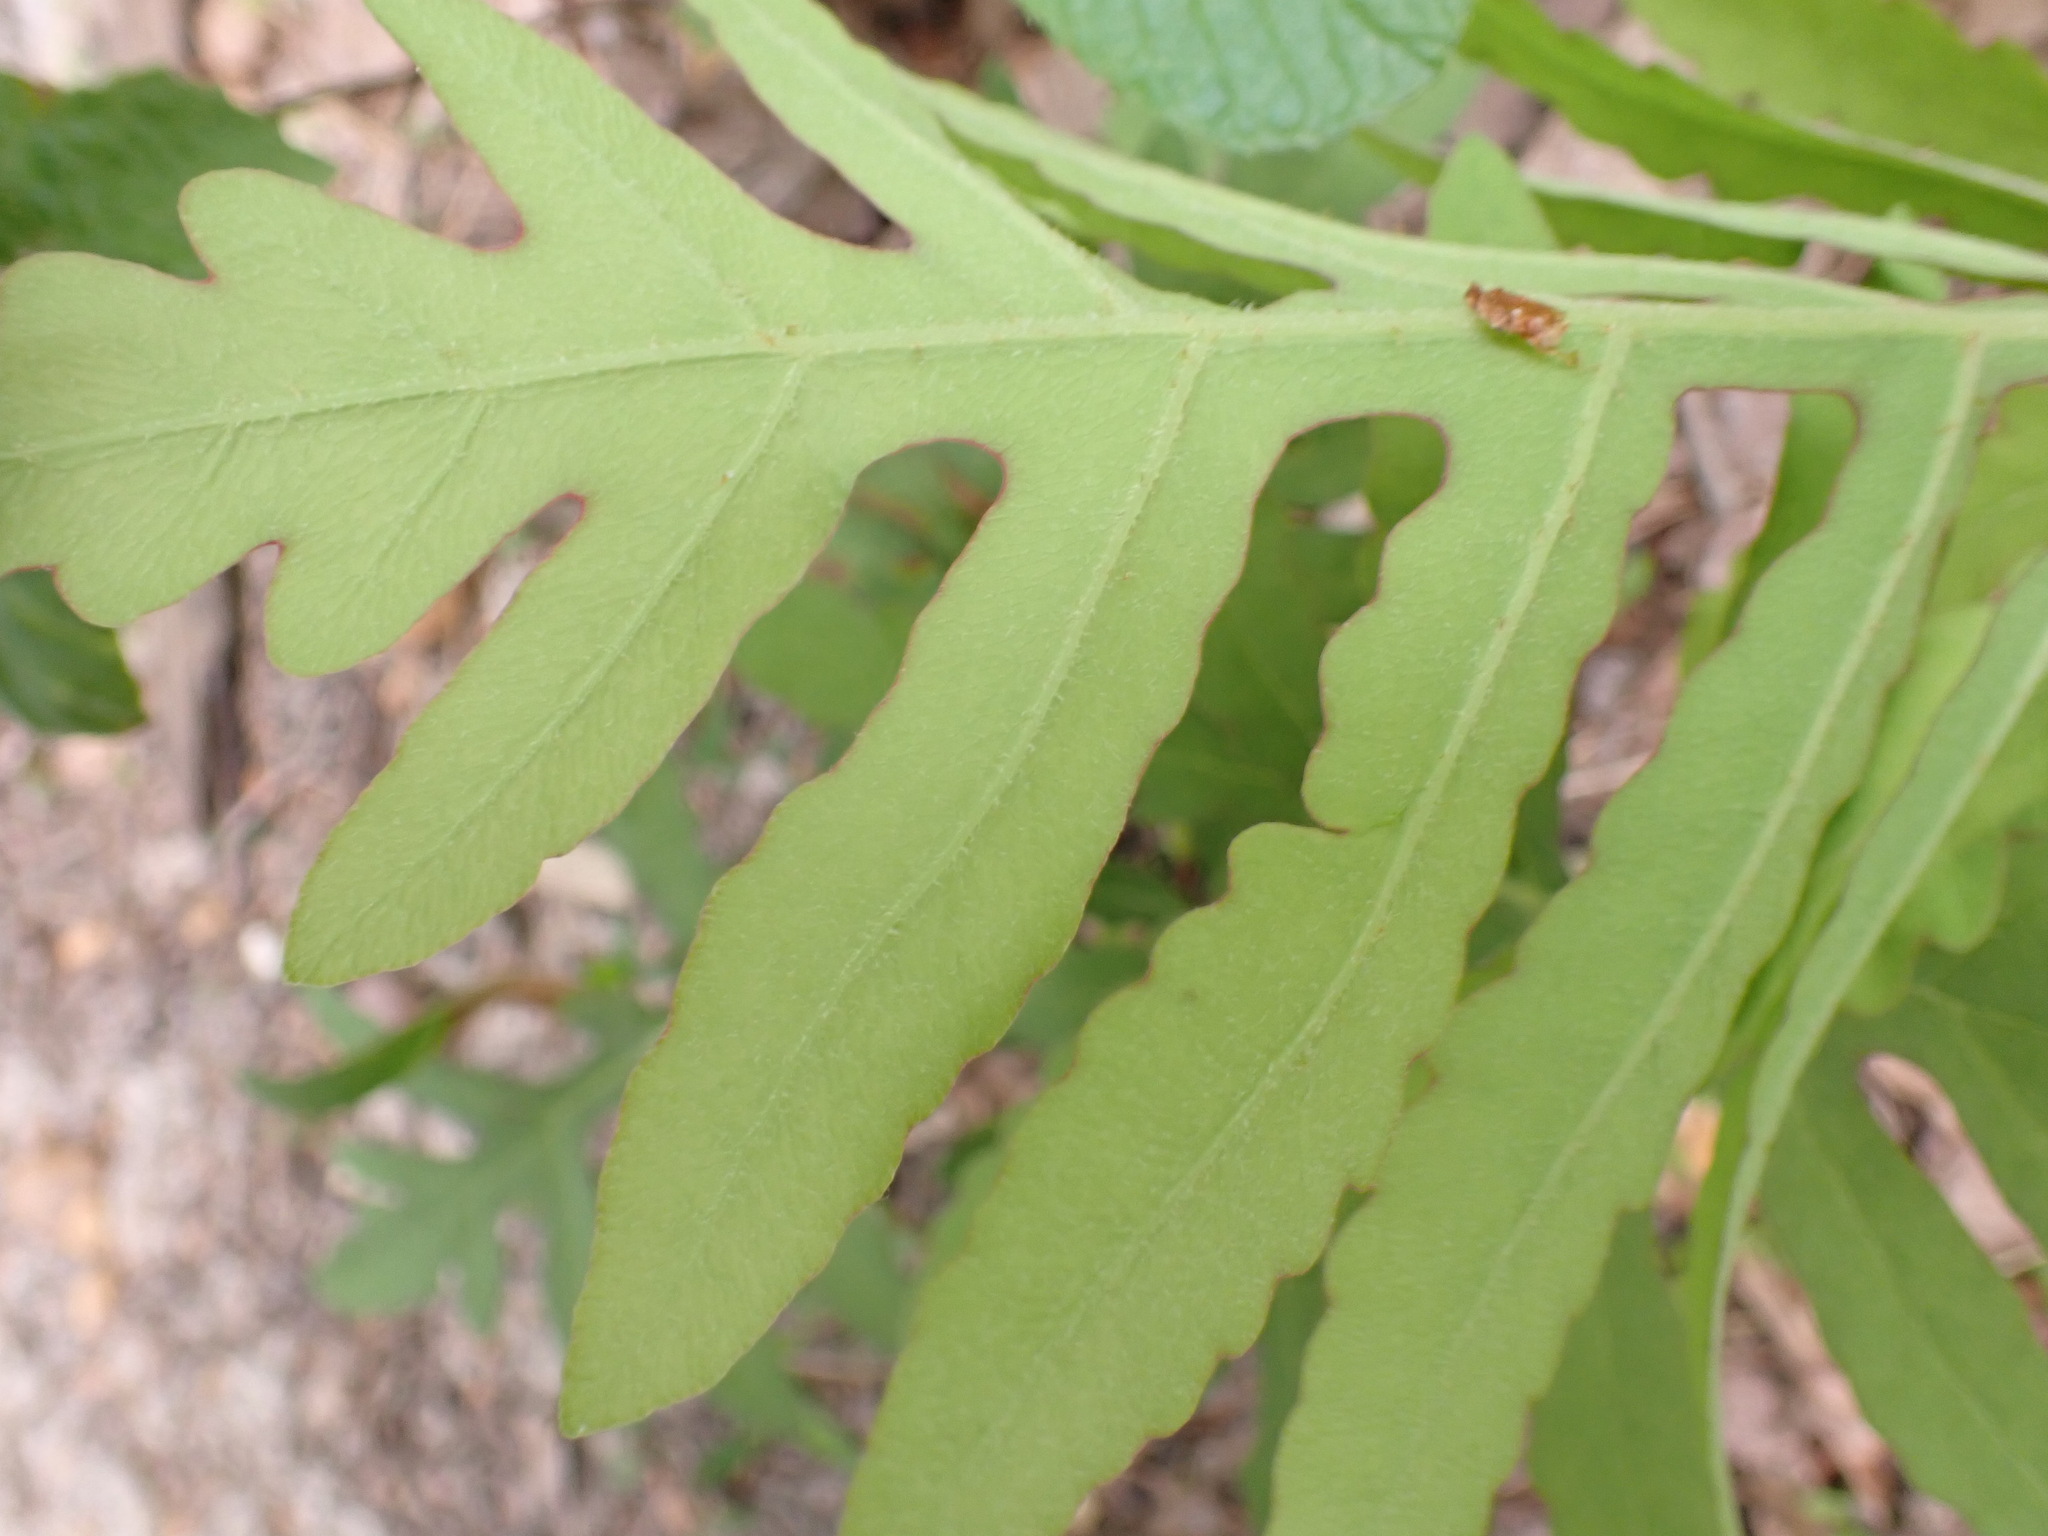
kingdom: Plantae
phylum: Tracheophyta
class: Polypodiopsida
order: Polypodiales
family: Onocleaceae
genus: Onoclea
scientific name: Onoclea sensibilis
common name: Sensitive fern
